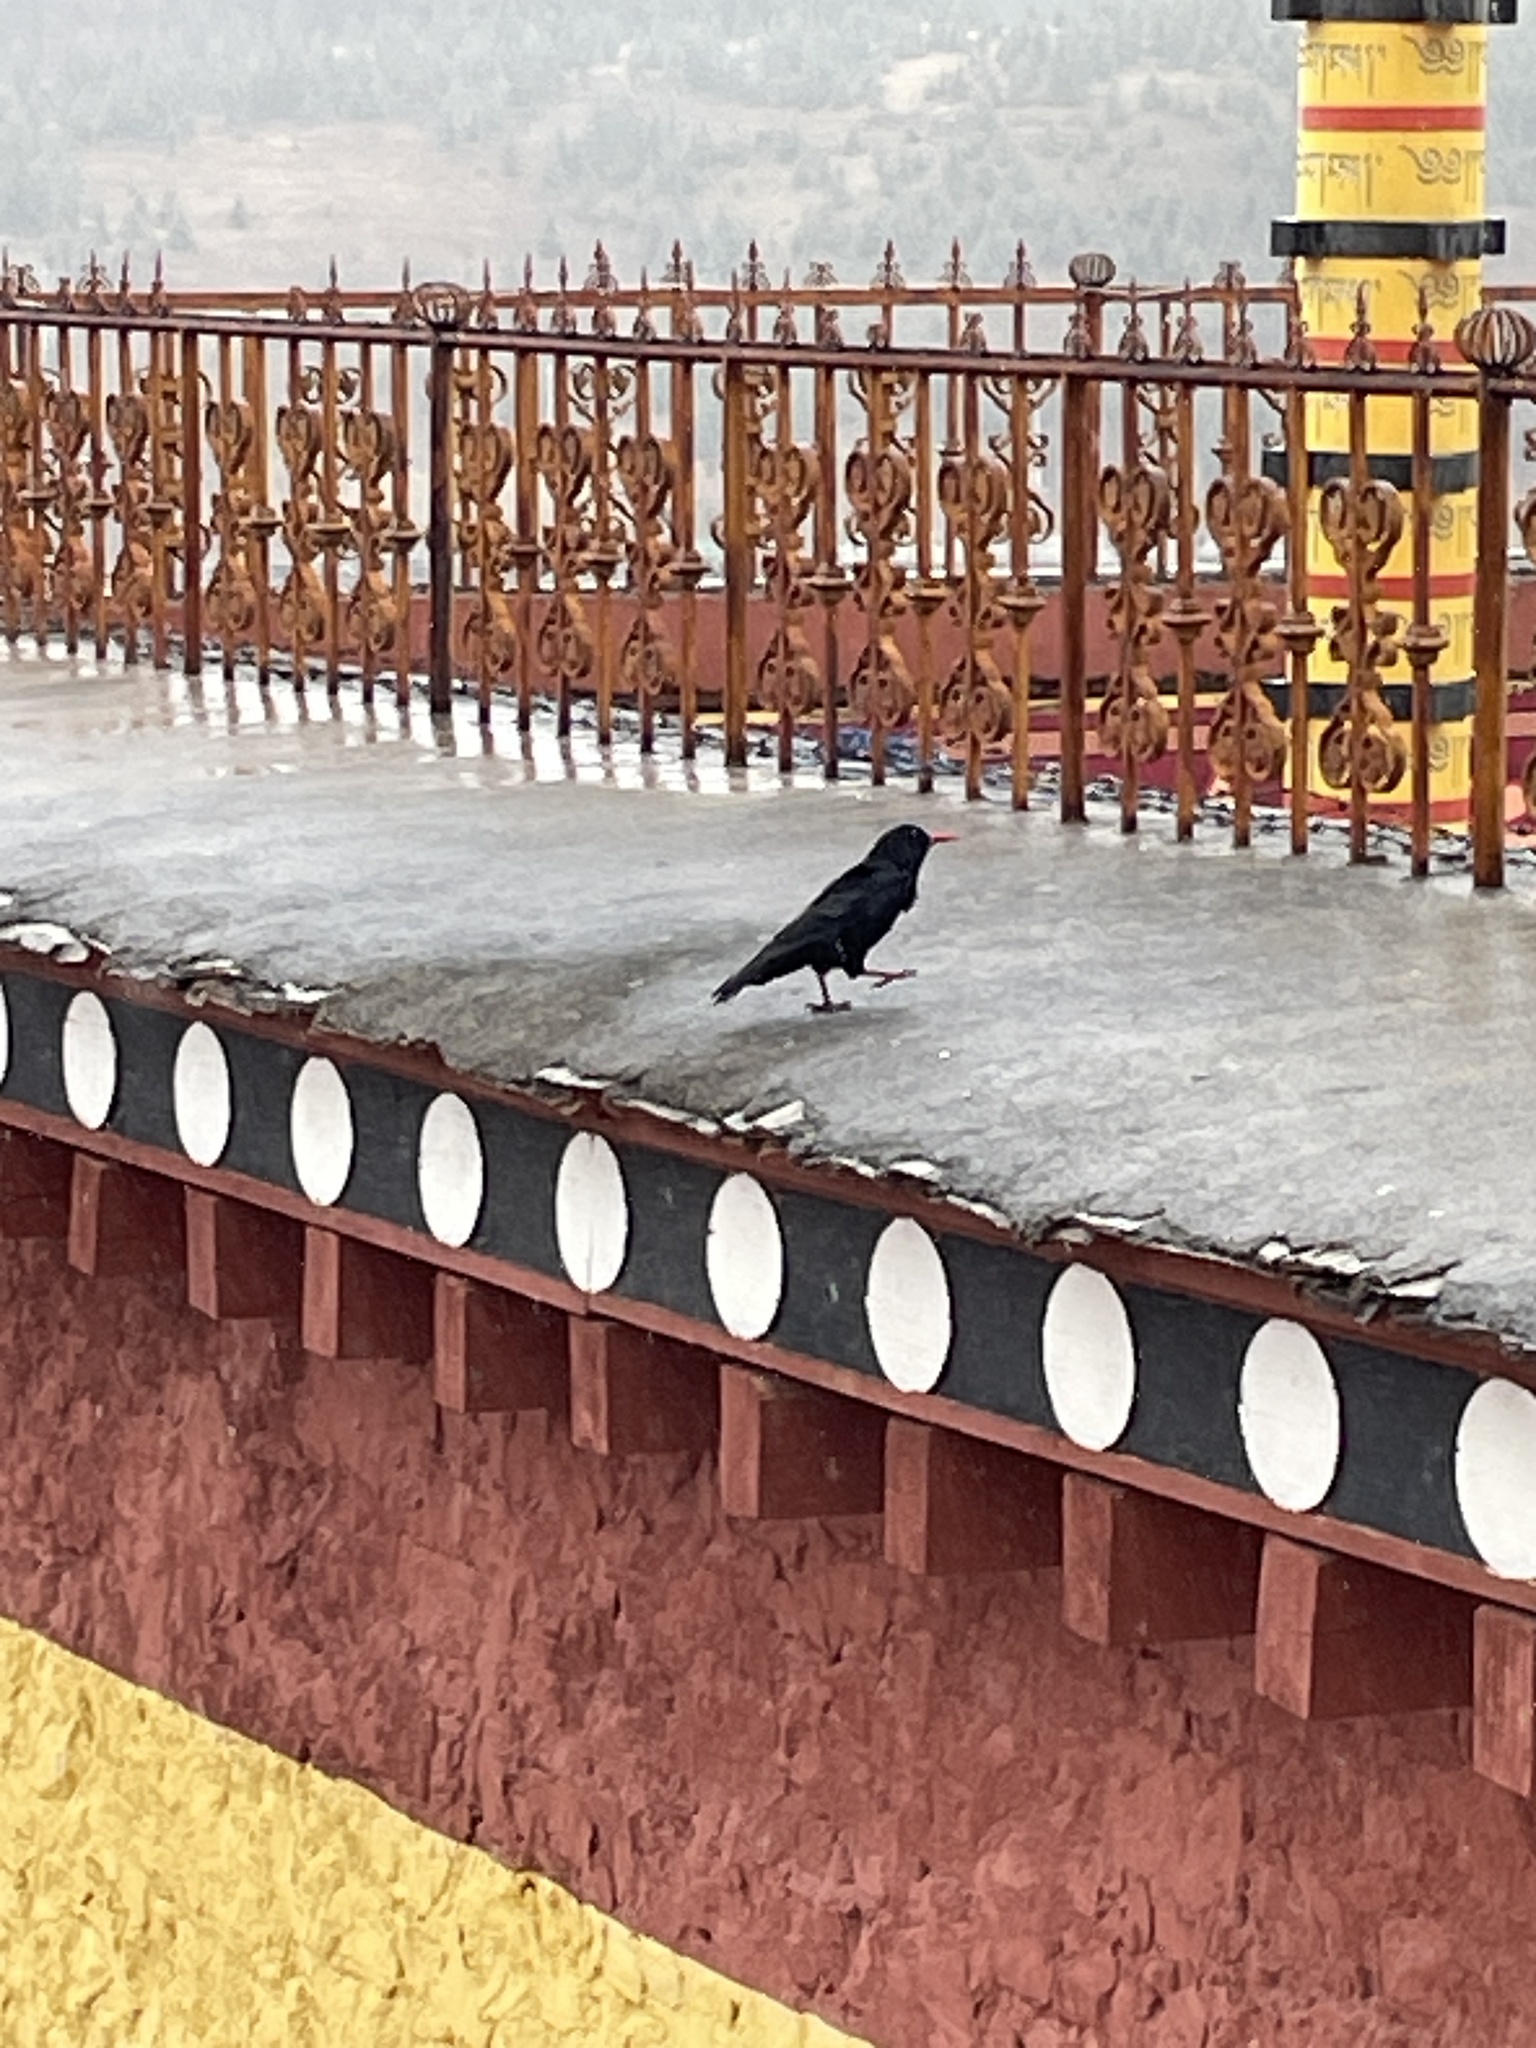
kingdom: Animalia
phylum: Chordata
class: Aves
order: Passeriformes
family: Corvidae
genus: Pyrrhocorax
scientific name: Pyrrhocorax pyrrhocorax
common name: Red-billed chough
